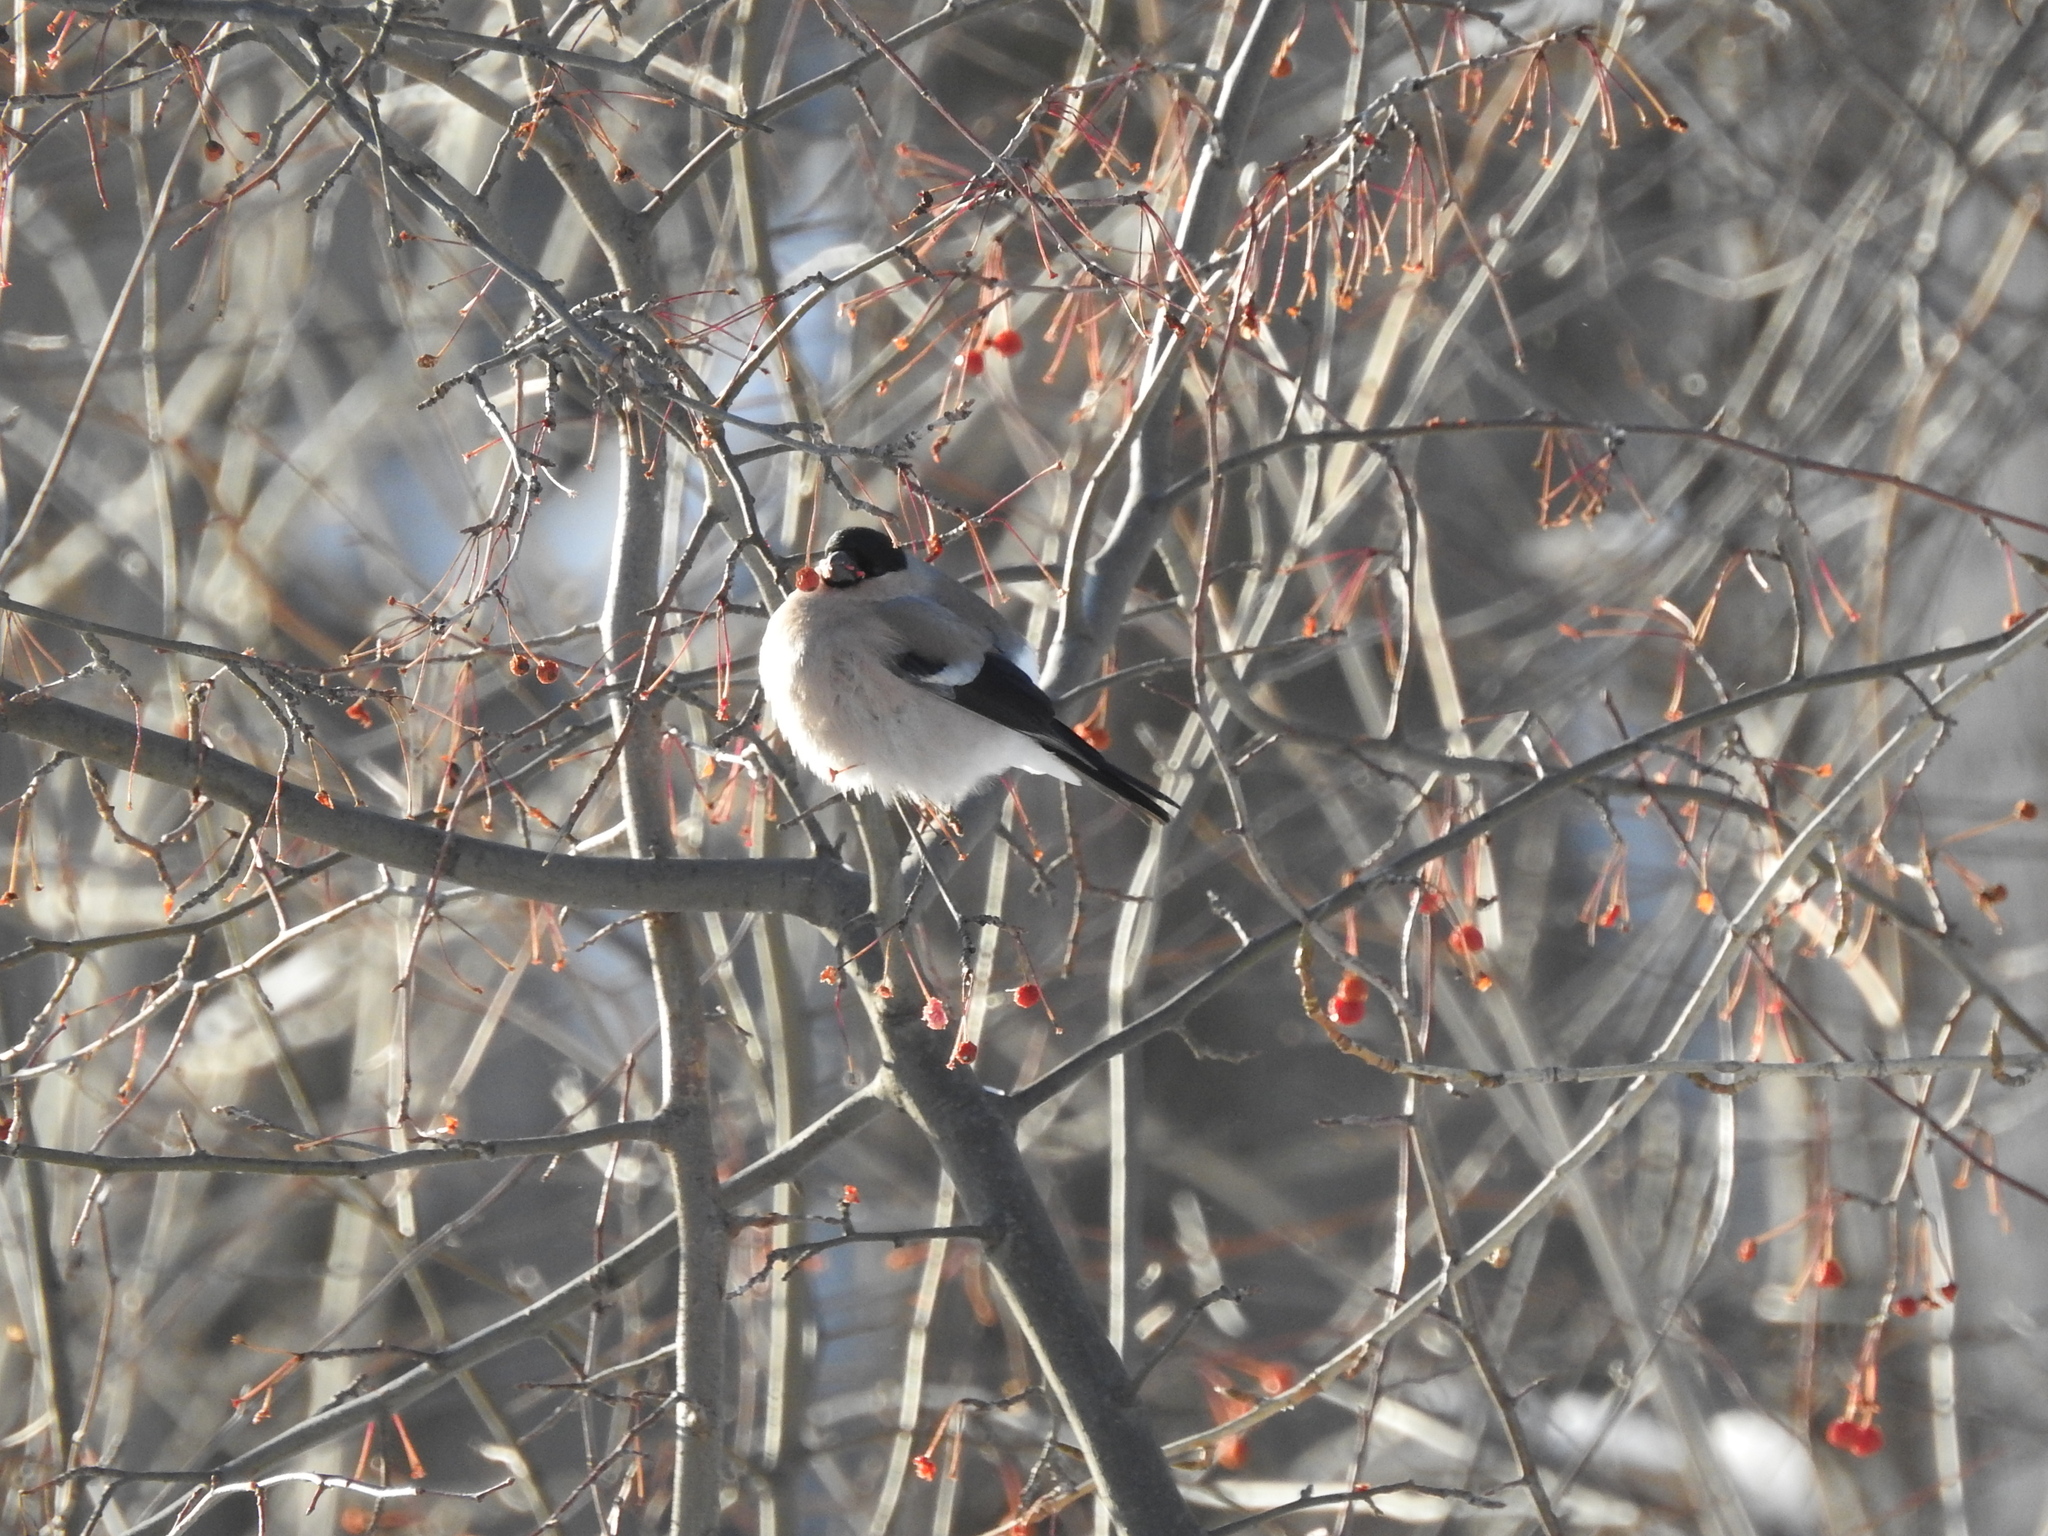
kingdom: Animalia
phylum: Chordata
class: Aves
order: Passeriformes
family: Fringillidae
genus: Pyrrhula
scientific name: Pyrrhula pyrrhula
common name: Eurasian bullfinch
